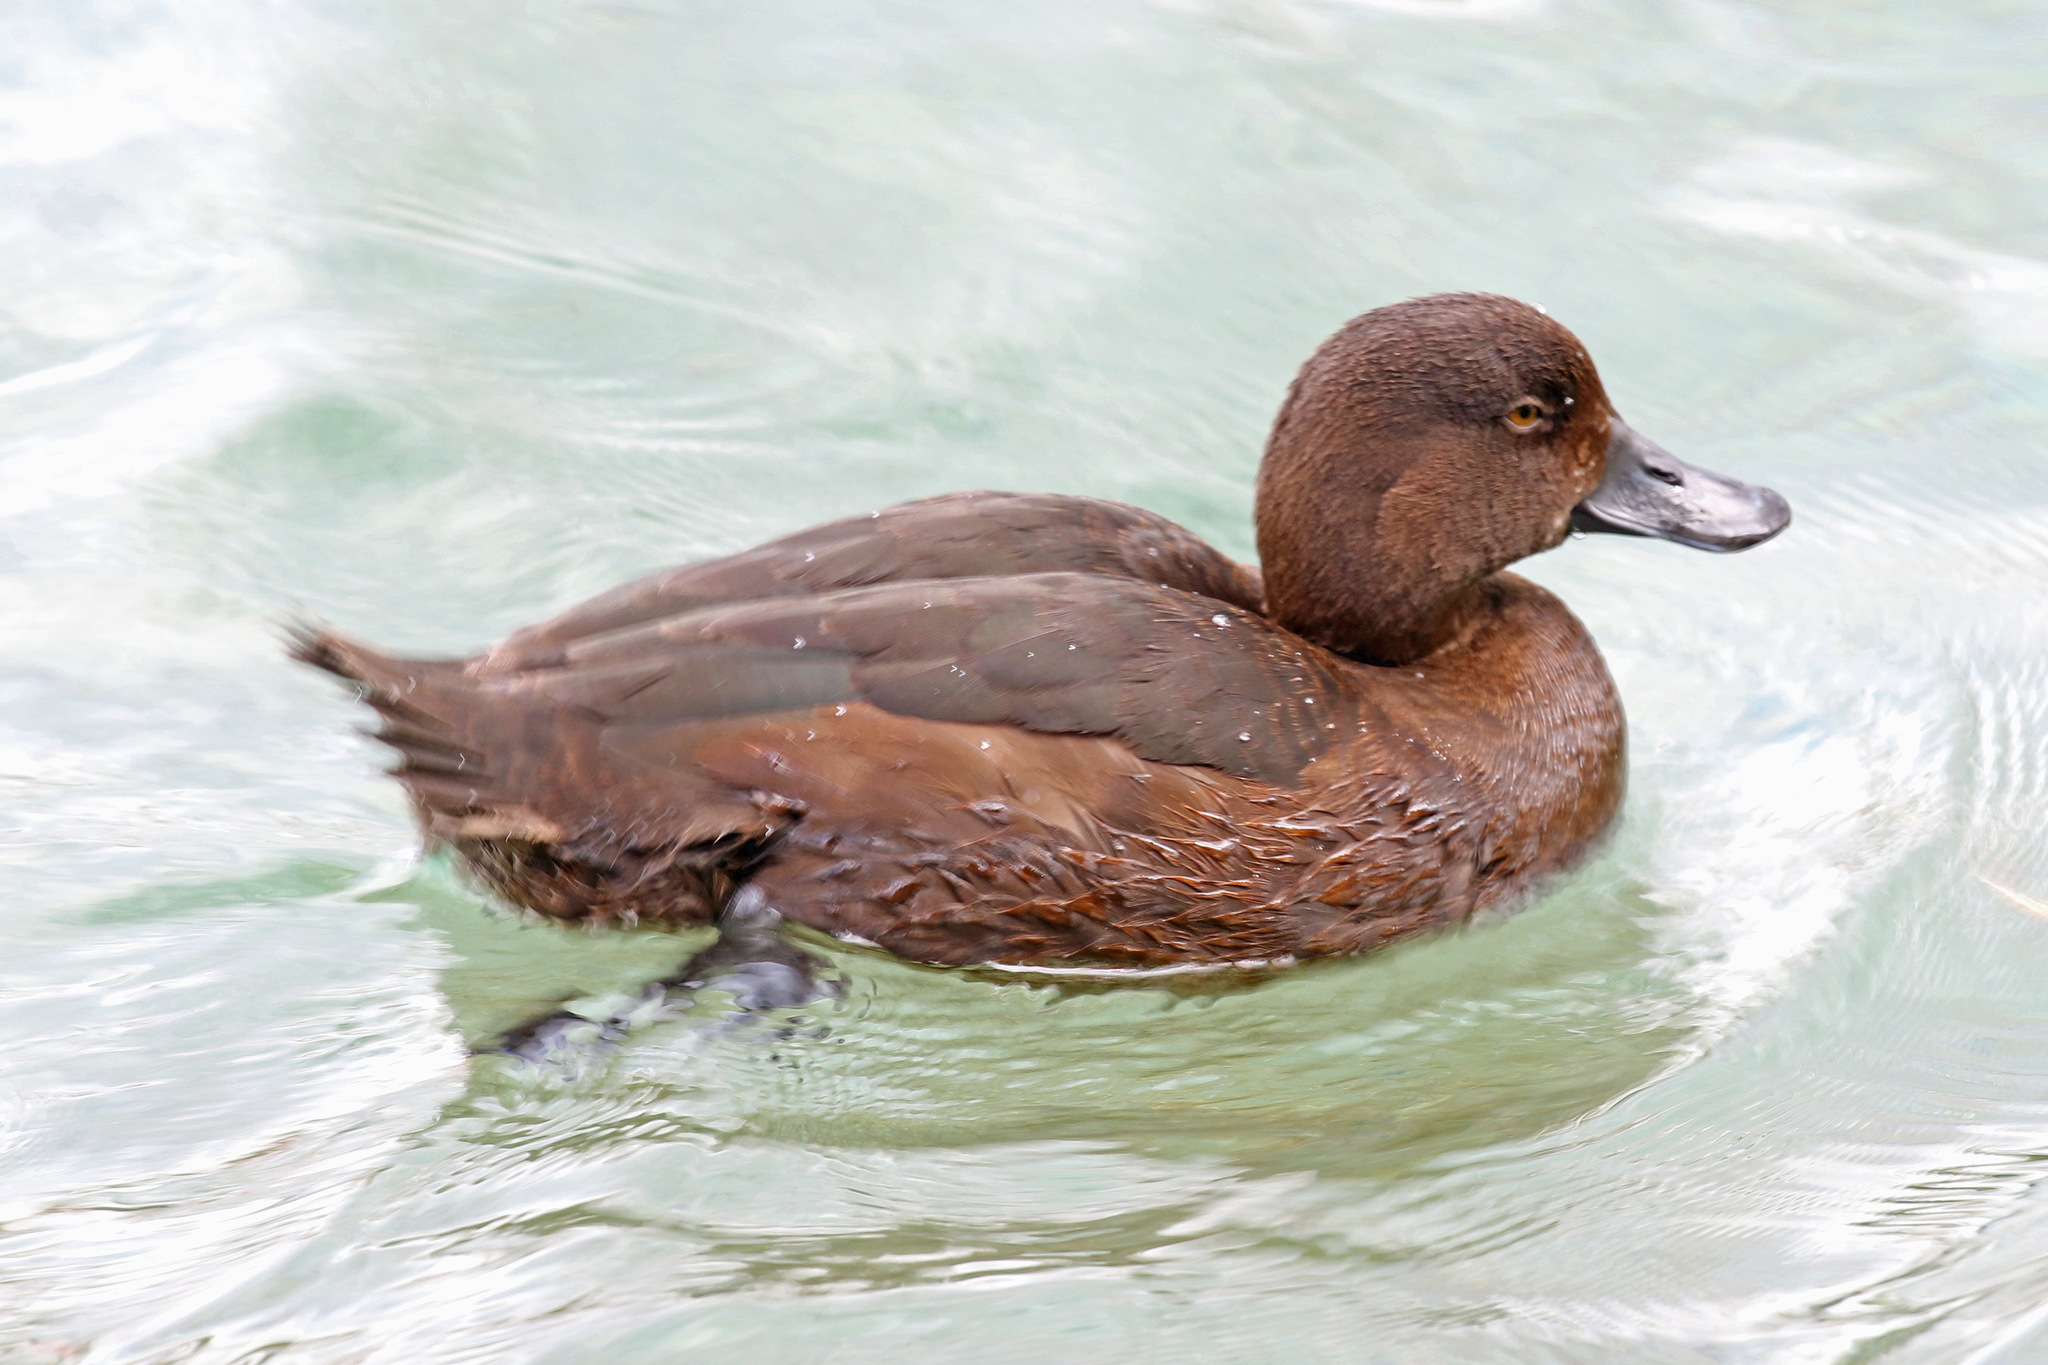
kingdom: Animalia
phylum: Chordata
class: Aves
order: Anseriformes
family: Anatidae
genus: Aythya
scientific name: Aythya novaeseelandiae
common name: New zealand scaup
